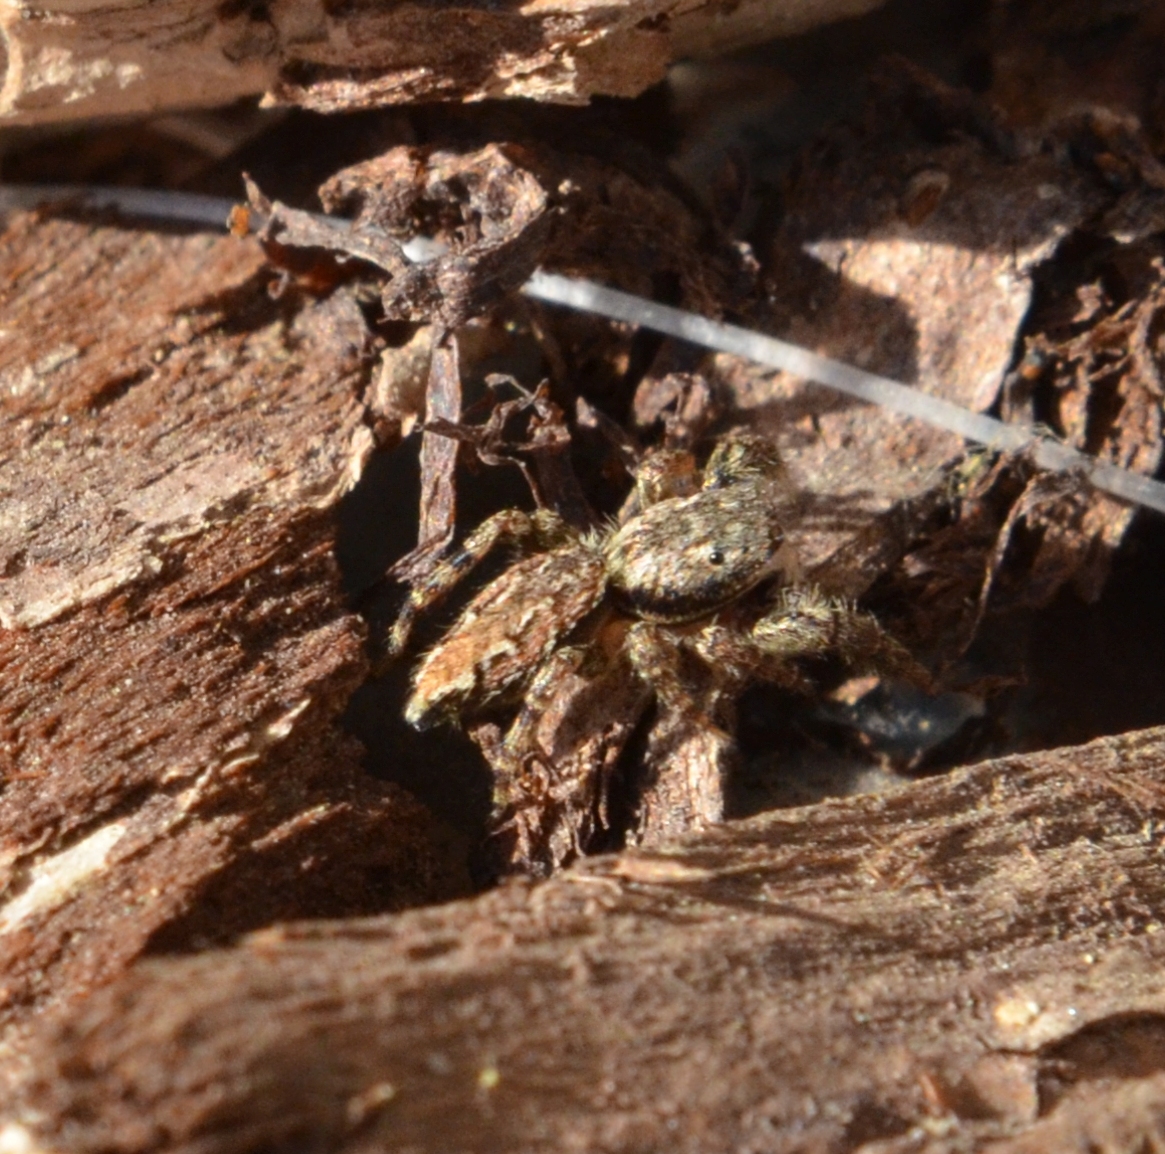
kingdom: Animalia
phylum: Arthropoda
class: Arachnida
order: Araneae
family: Salticidae
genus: Marpissa
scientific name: Marpissa muscosa
